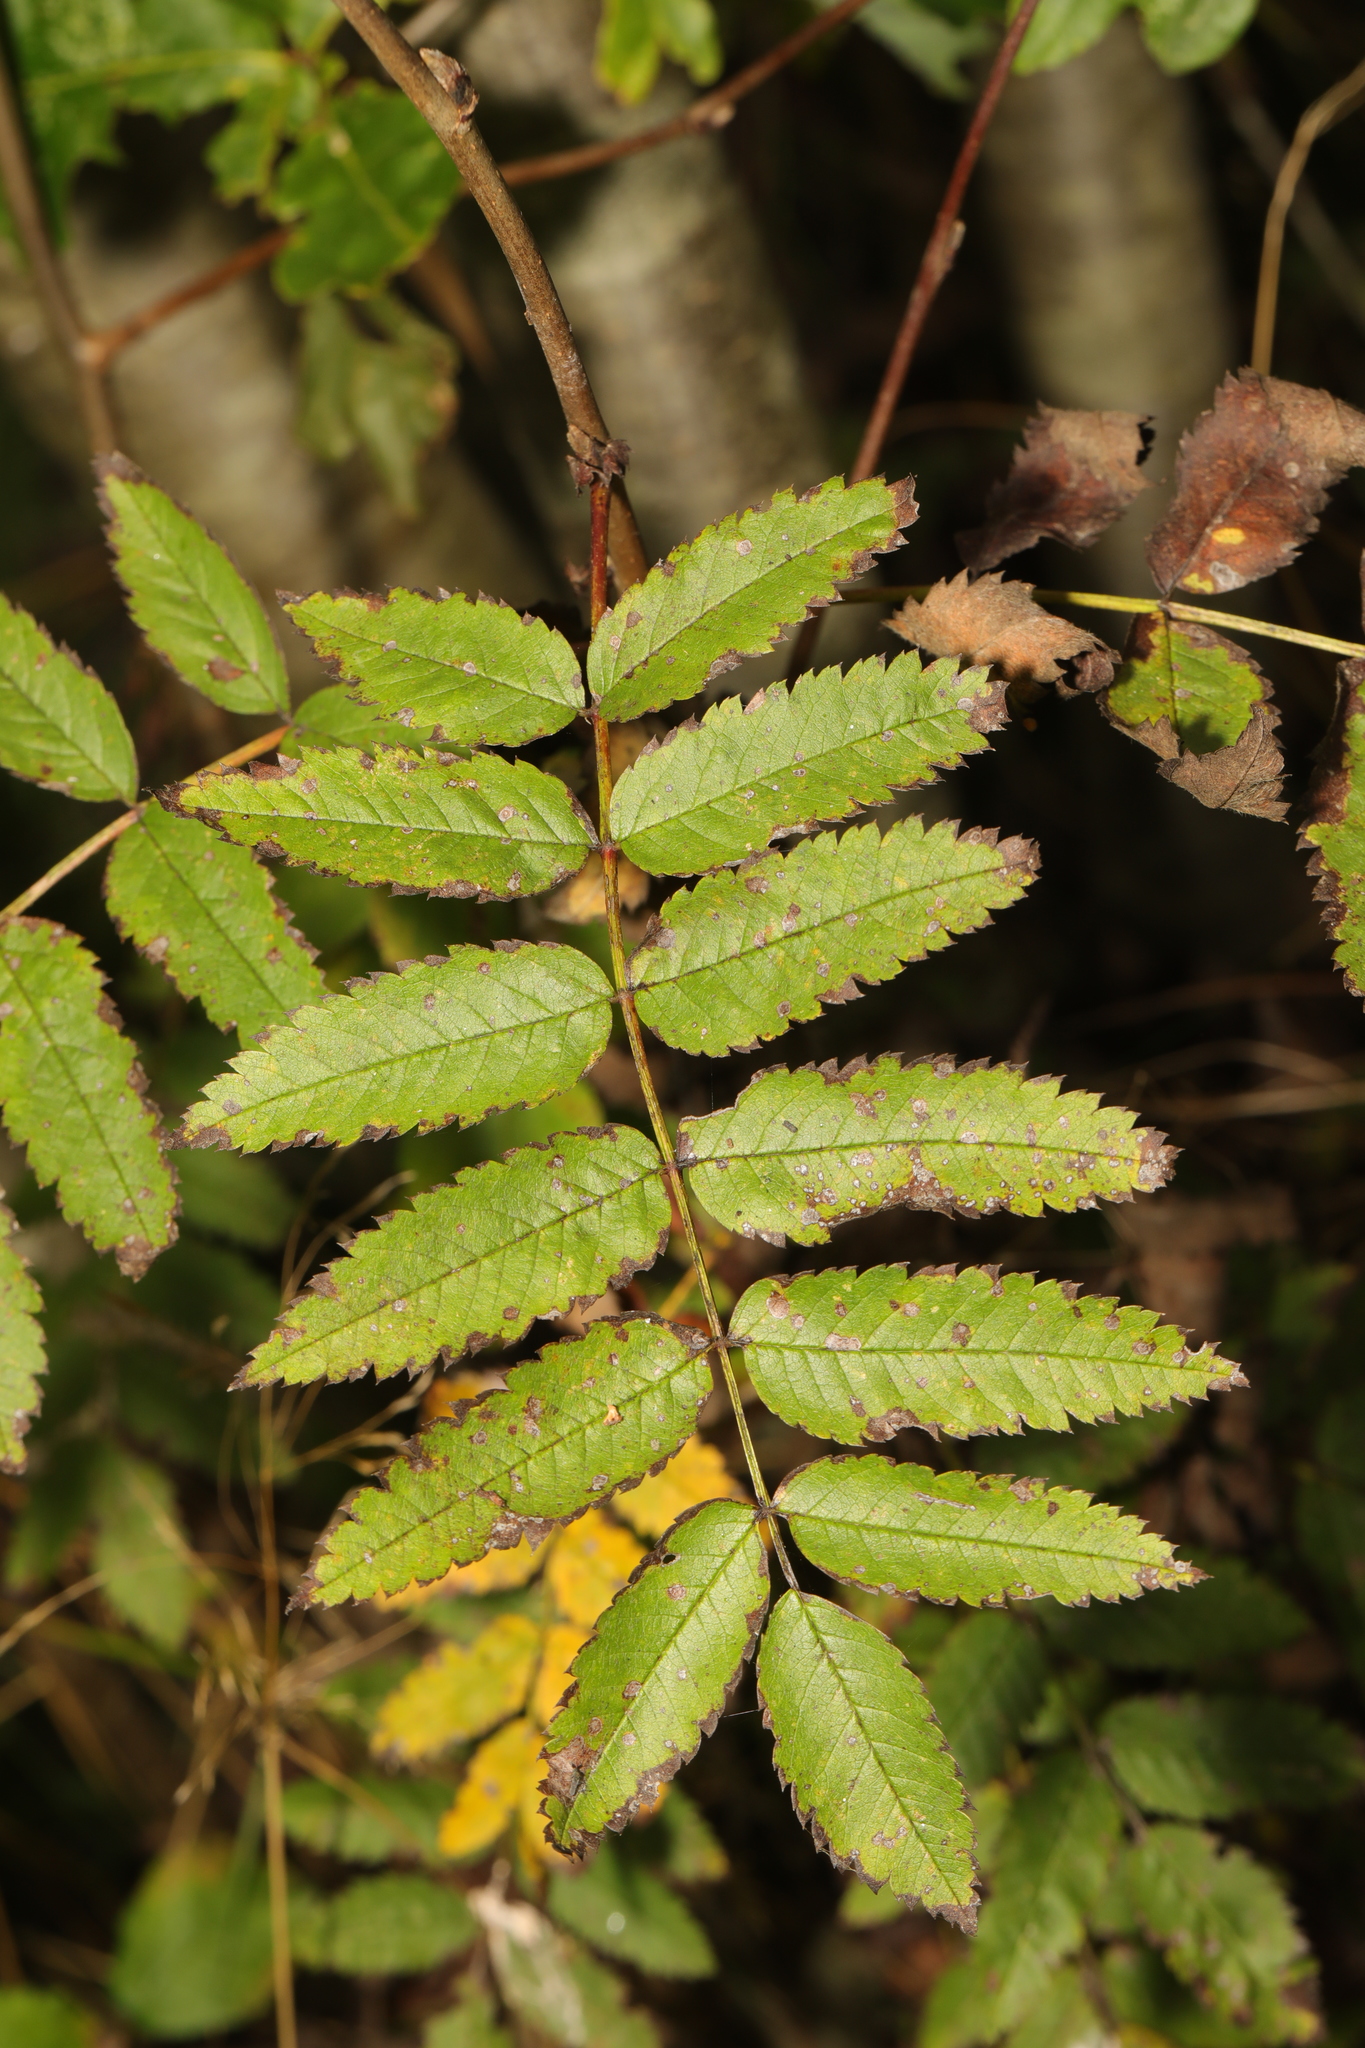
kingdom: Plantae
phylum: Tracheophyta
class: Magnoliopsida
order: Rosales
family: Rosaceae
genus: Sorbus
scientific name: Sorbus aucuparia
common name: Rowan
